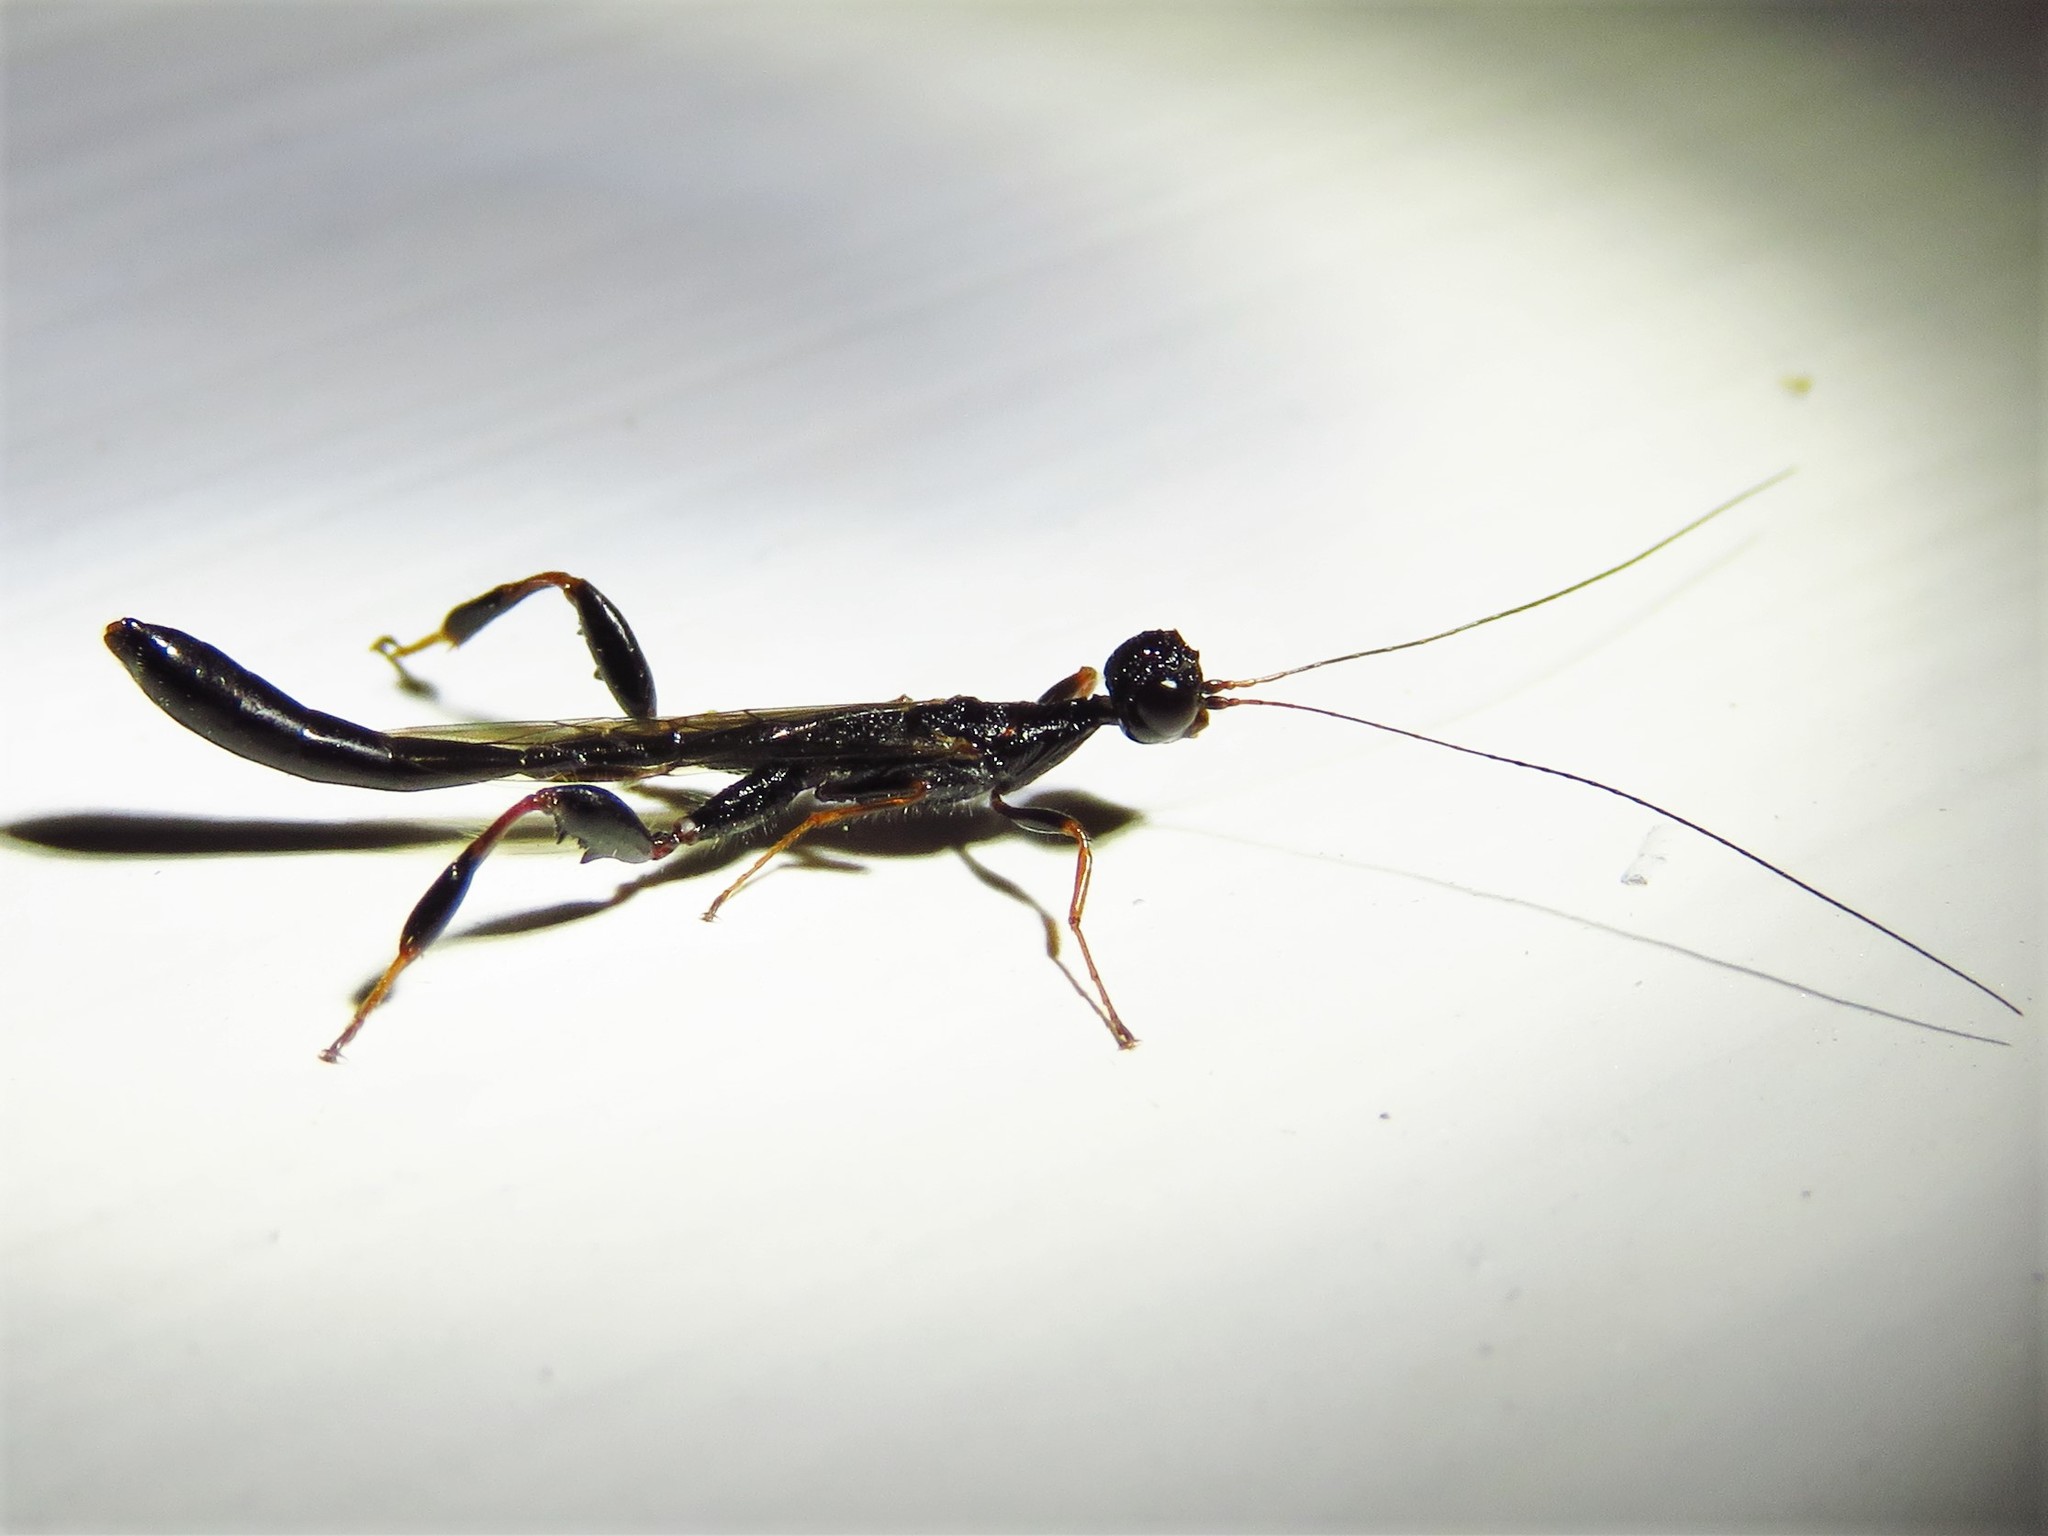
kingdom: Animalia
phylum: Arthropoda
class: Insecta
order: Hymenoptera
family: Stephanidae
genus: Megischus
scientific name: Megischus
